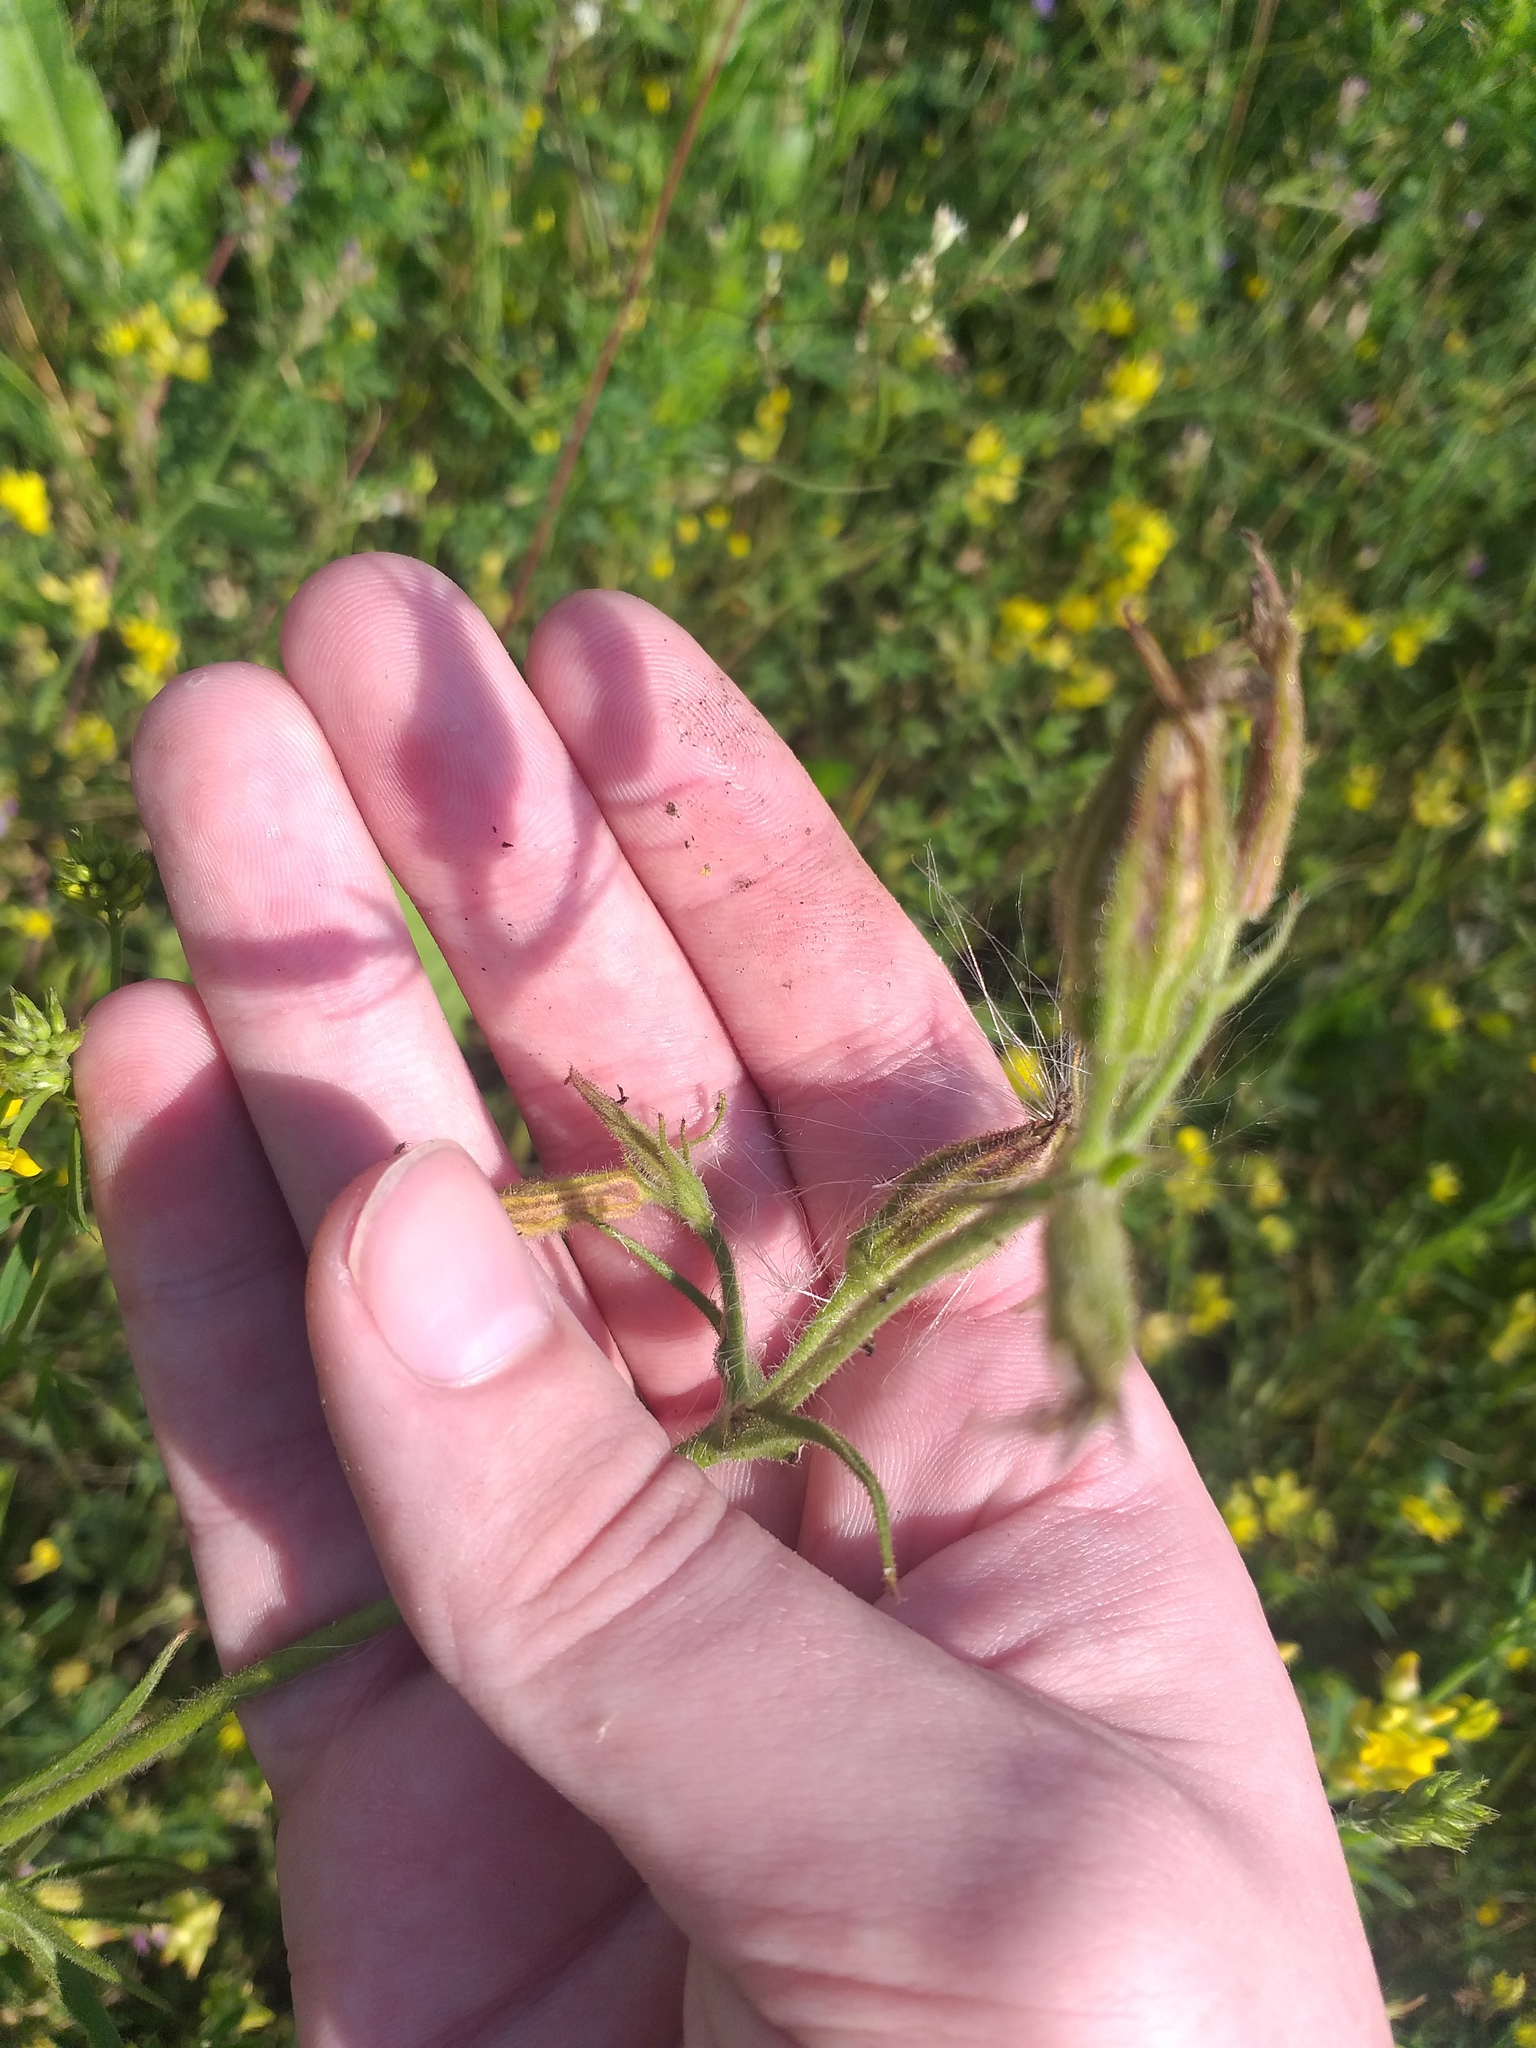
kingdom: Plantae
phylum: Tracheophyta
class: Magnoliopsida
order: Caryophyllales
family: Caryophyllaceae
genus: Silene
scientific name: Silene noctiflora
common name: Night-flowering catchfly
